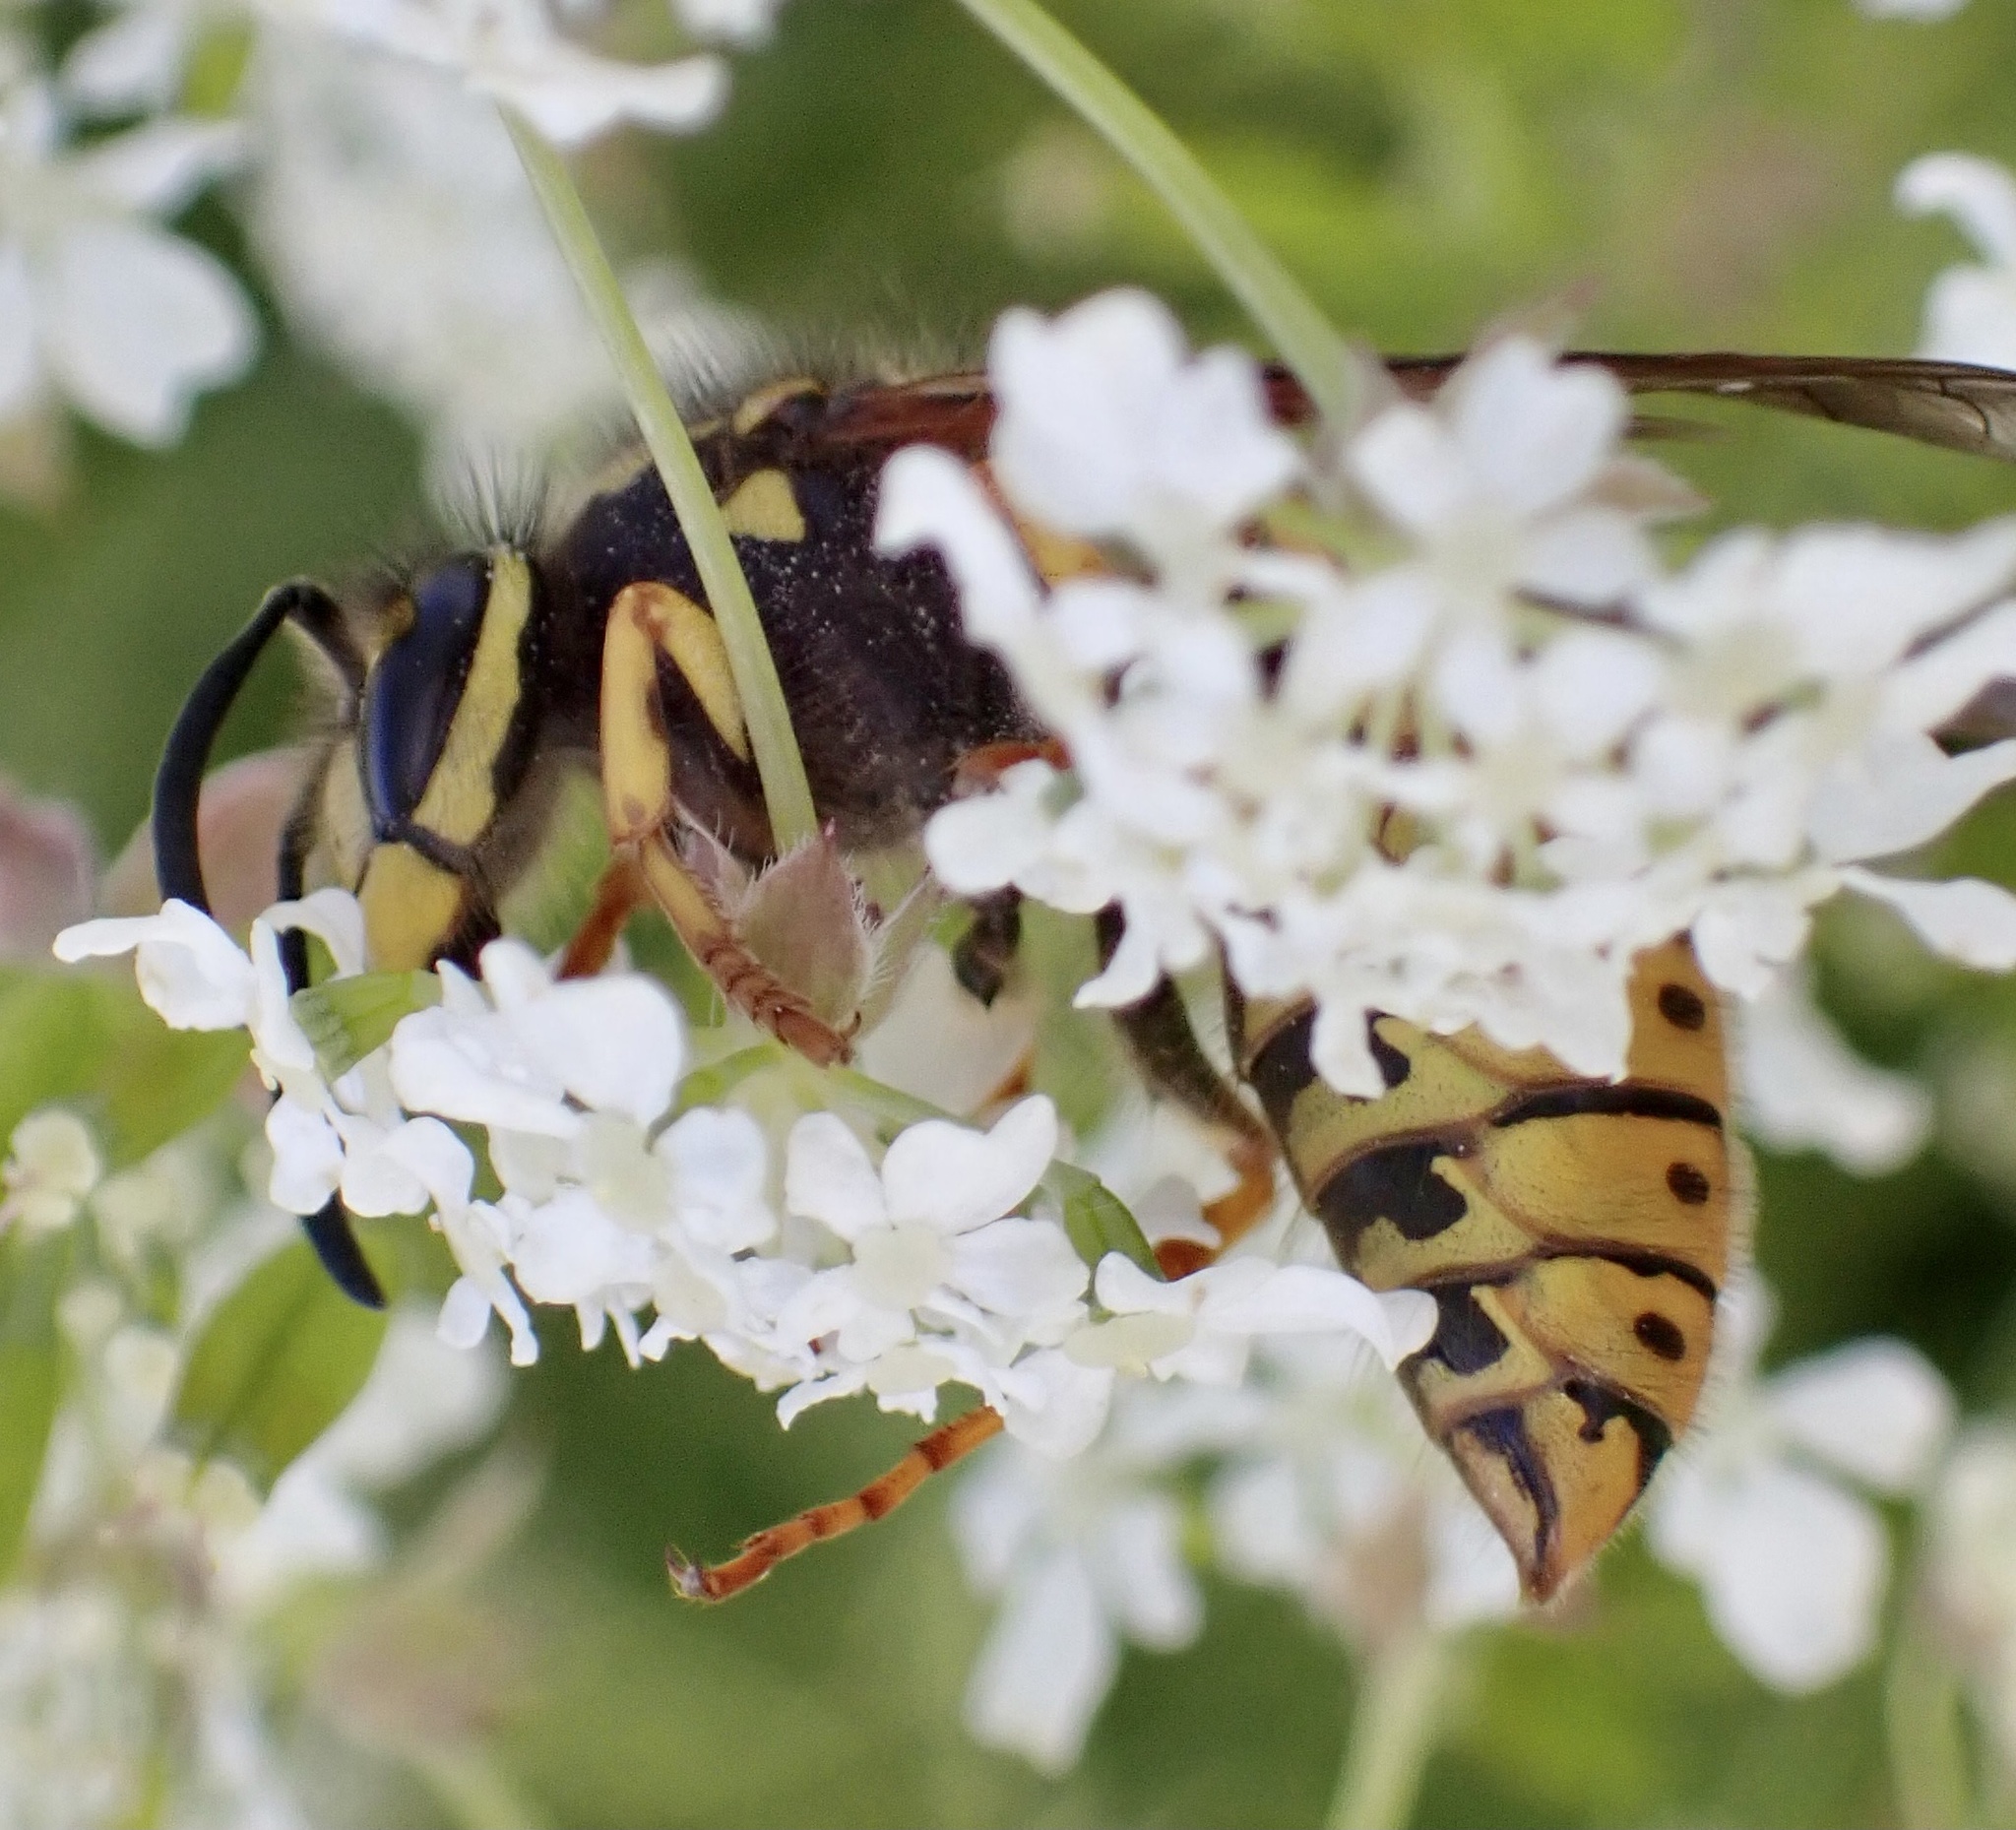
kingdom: Animalia
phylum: Arthropoda
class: Insecta
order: Hymenoptera
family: Vespidae
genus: Vespula
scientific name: Vespula germanica
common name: German wasp
